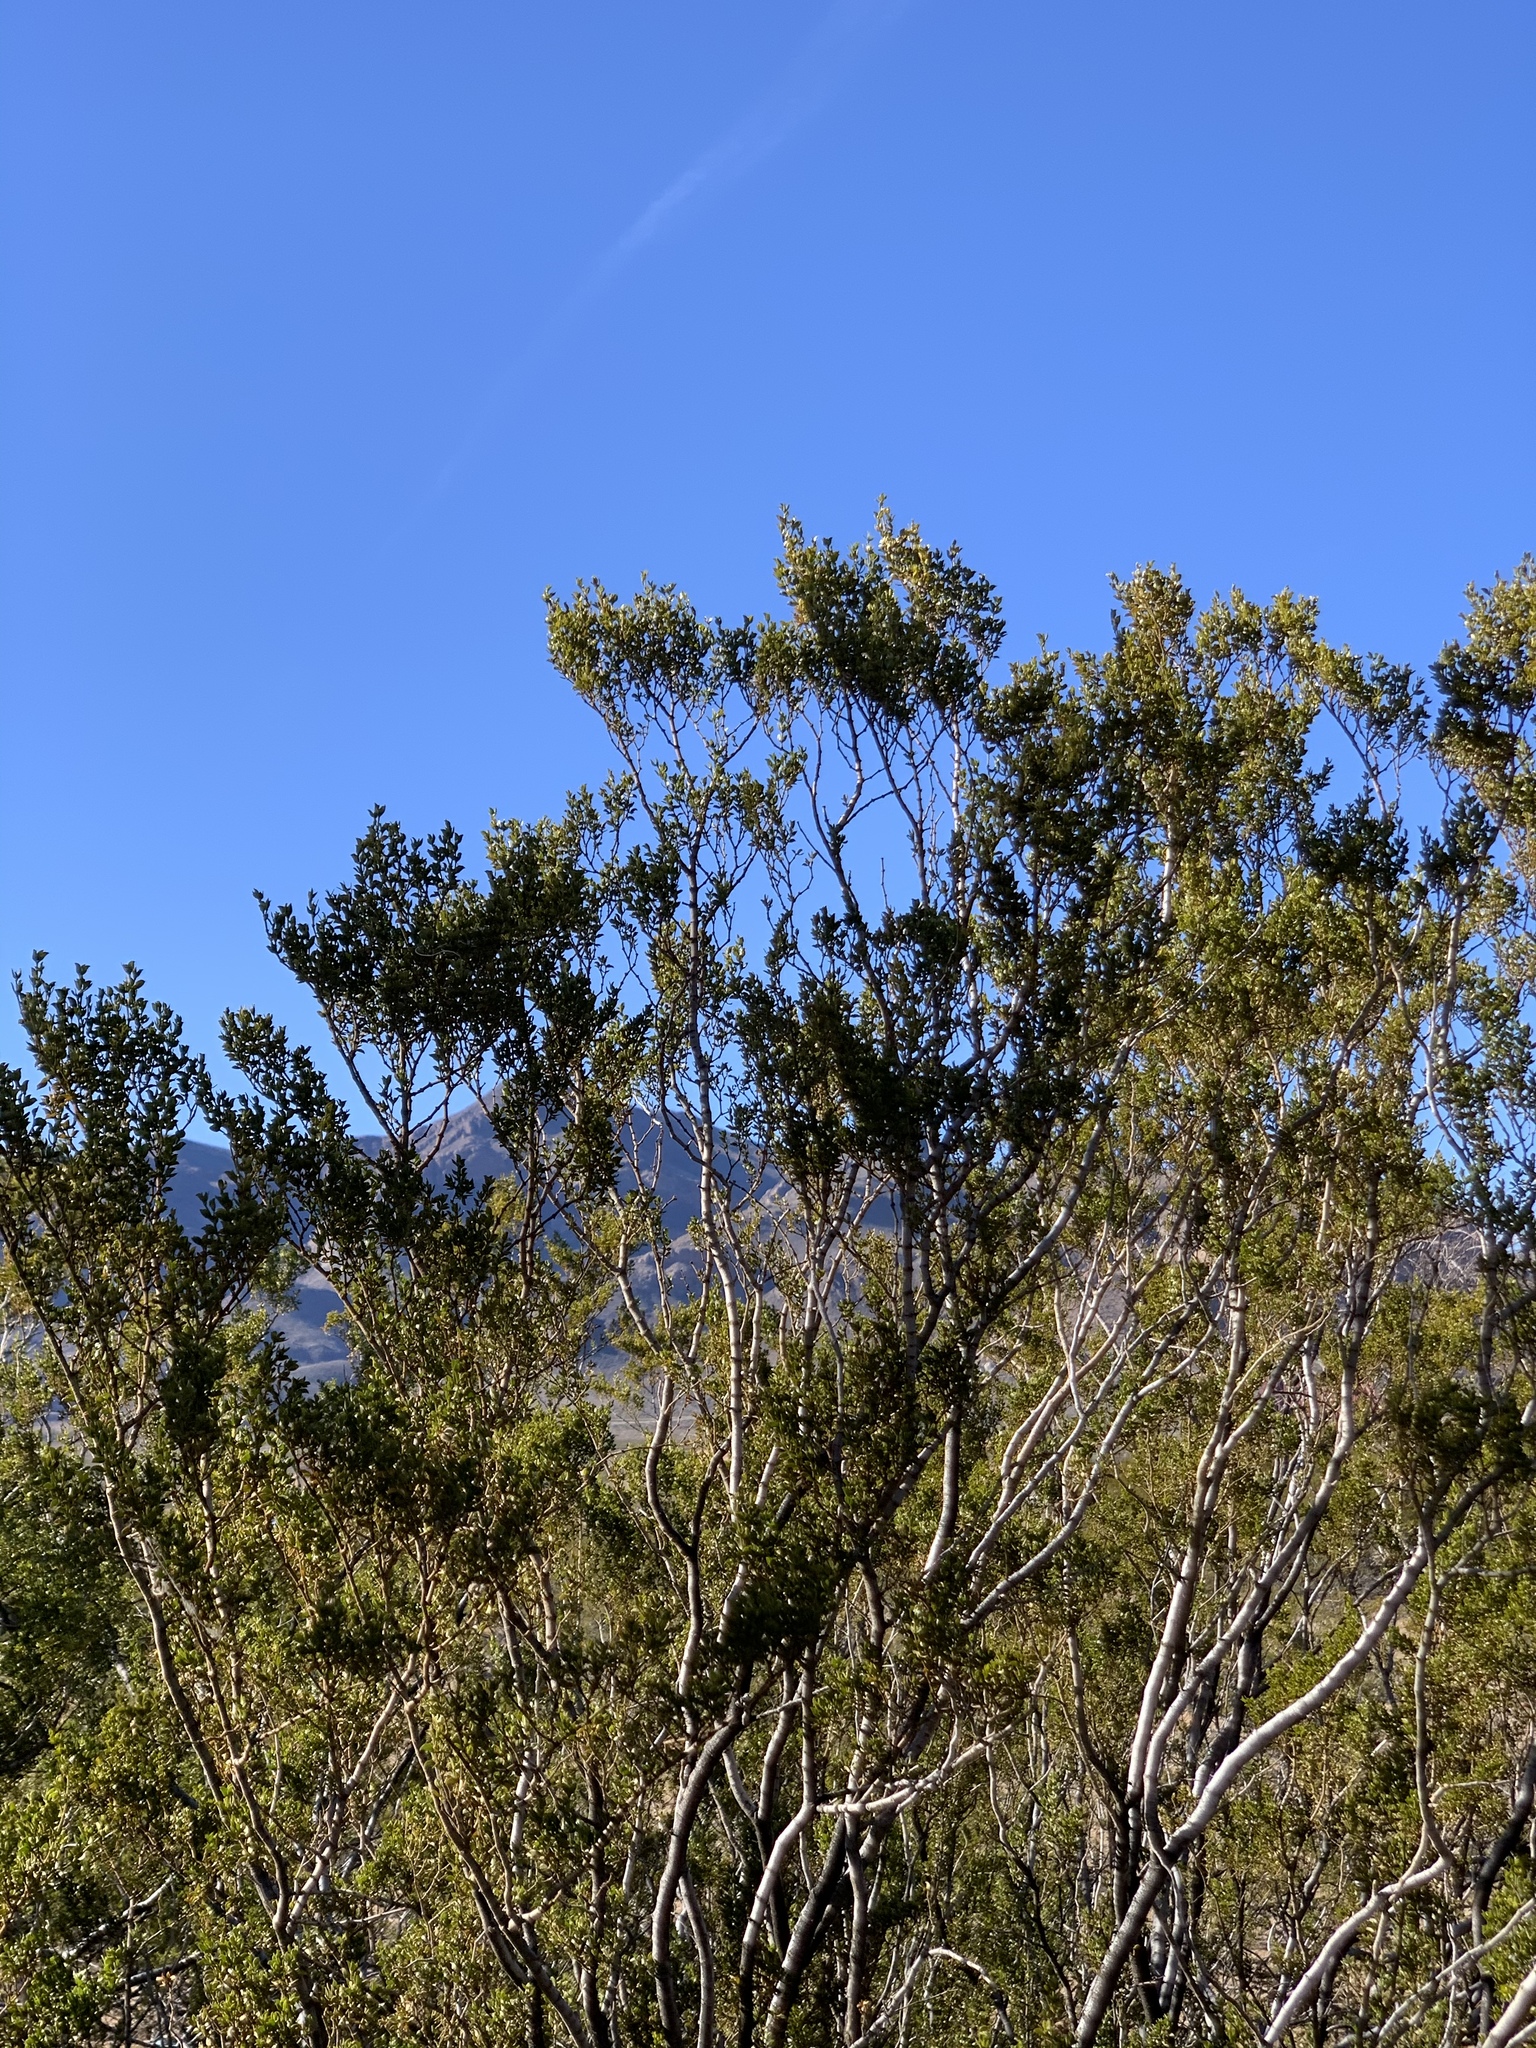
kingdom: Animalia
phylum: Arthropoda
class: Insecta
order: Diptera
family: Cecidomyiidae
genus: Asphondylia
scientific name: Asphondylia auripila
